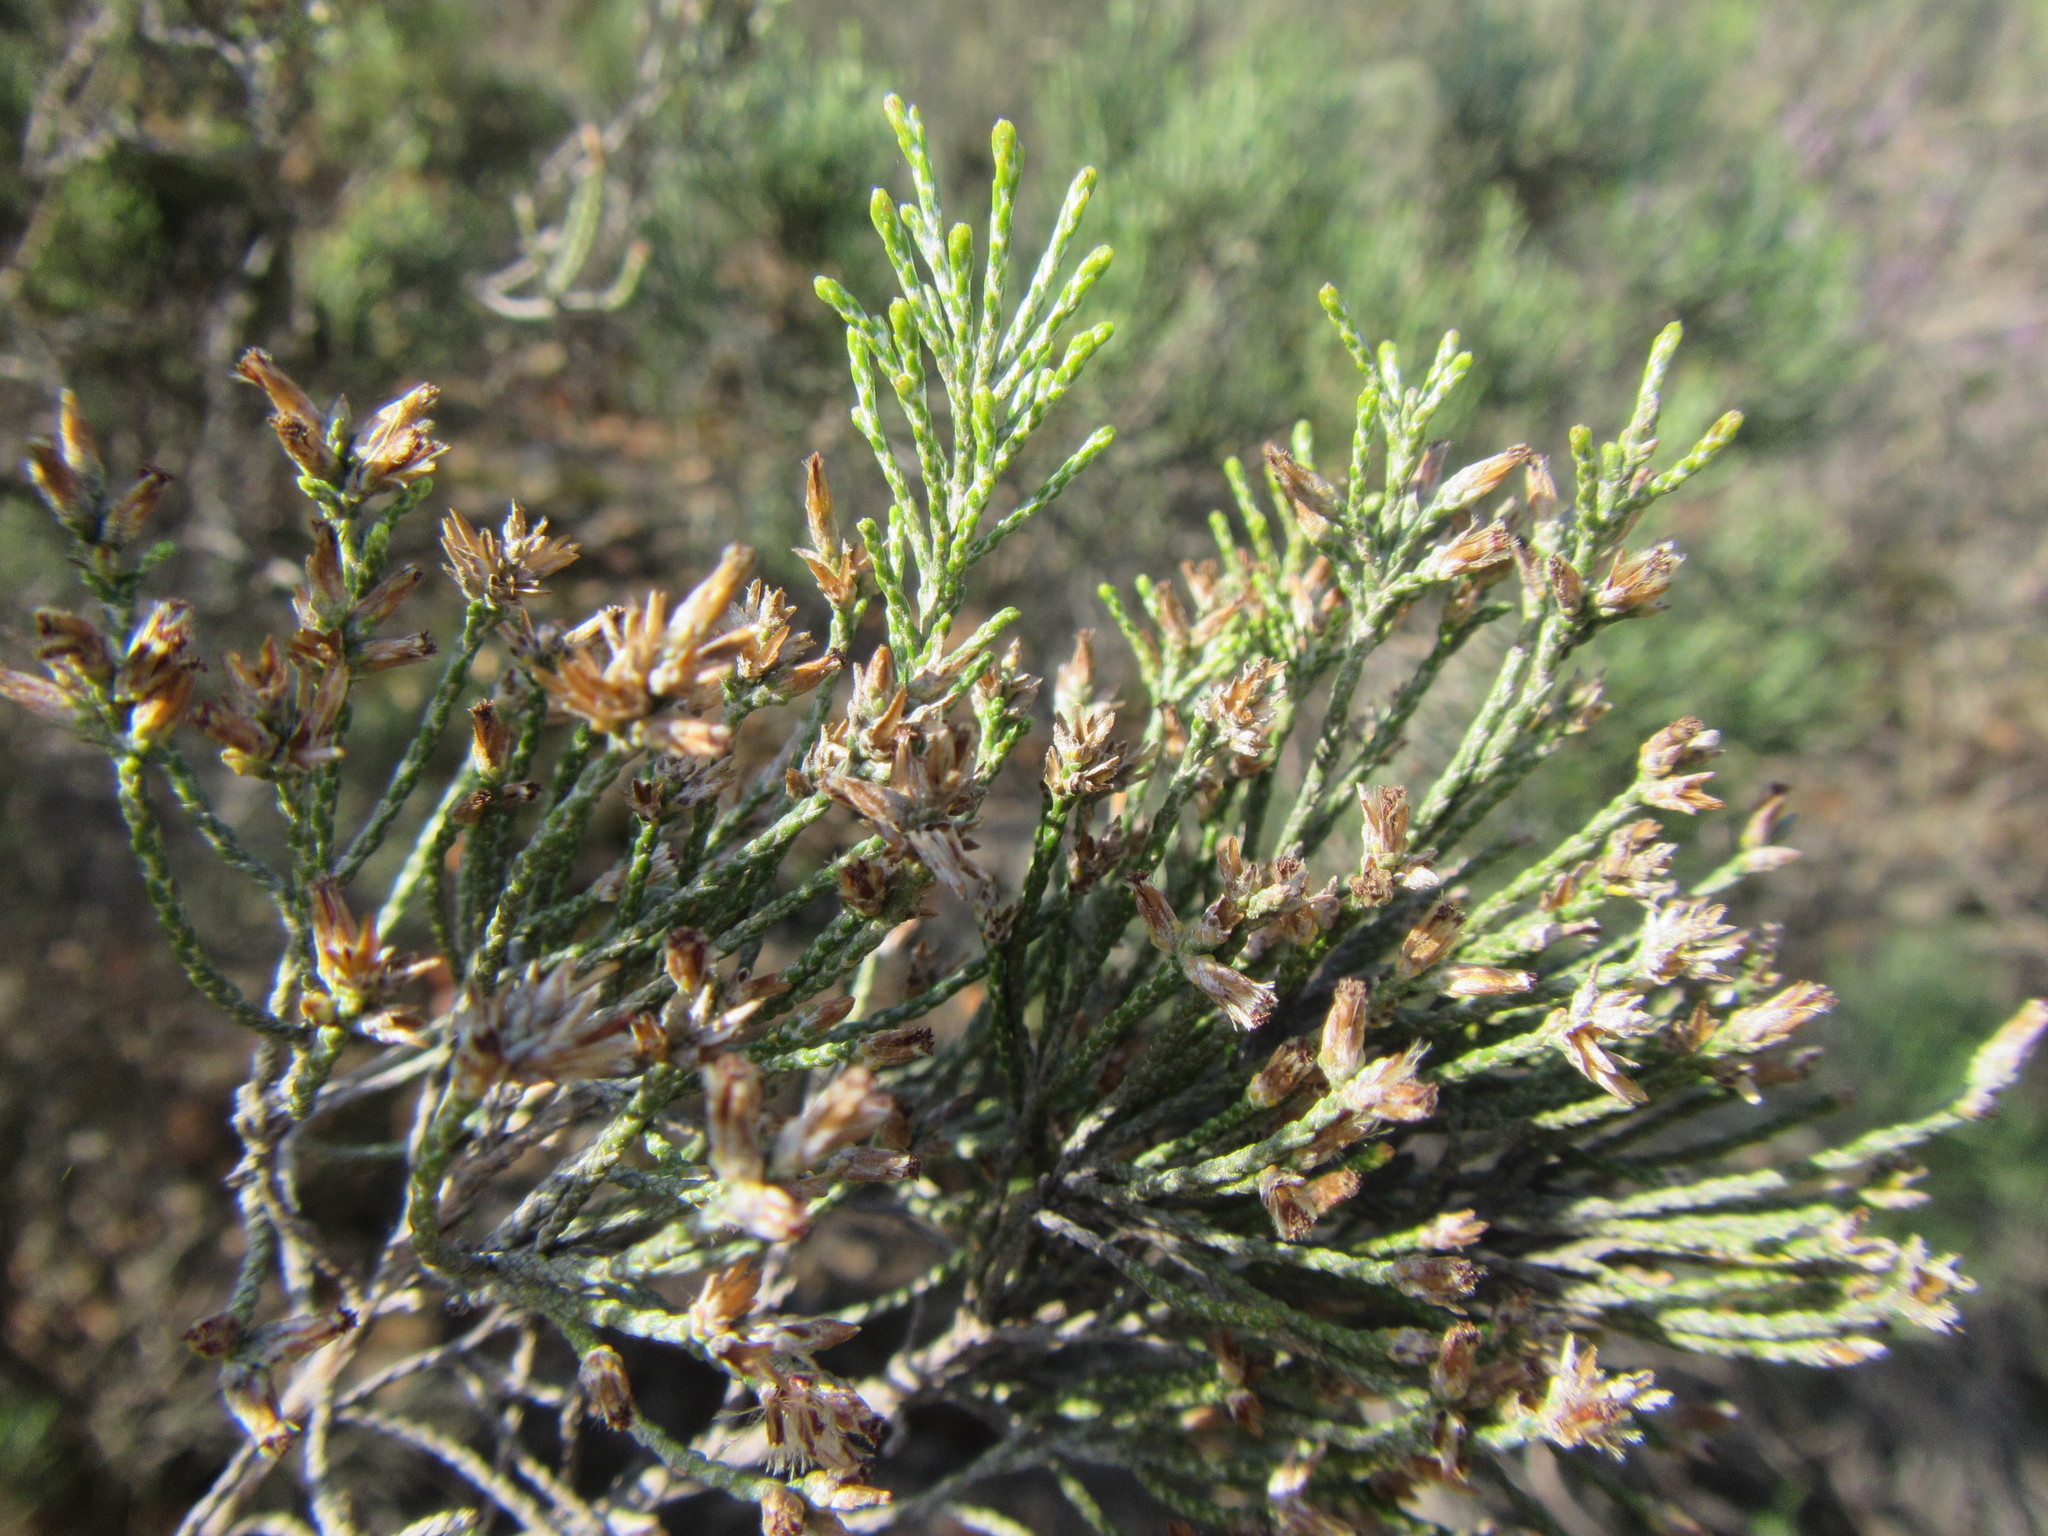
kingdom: Plantae
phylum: Tracheophyta
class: Magnoliopsida
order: Asterales
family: Asteraceae
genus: Dicerothamnus
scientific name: Dicerothamnus rhinocerotis
